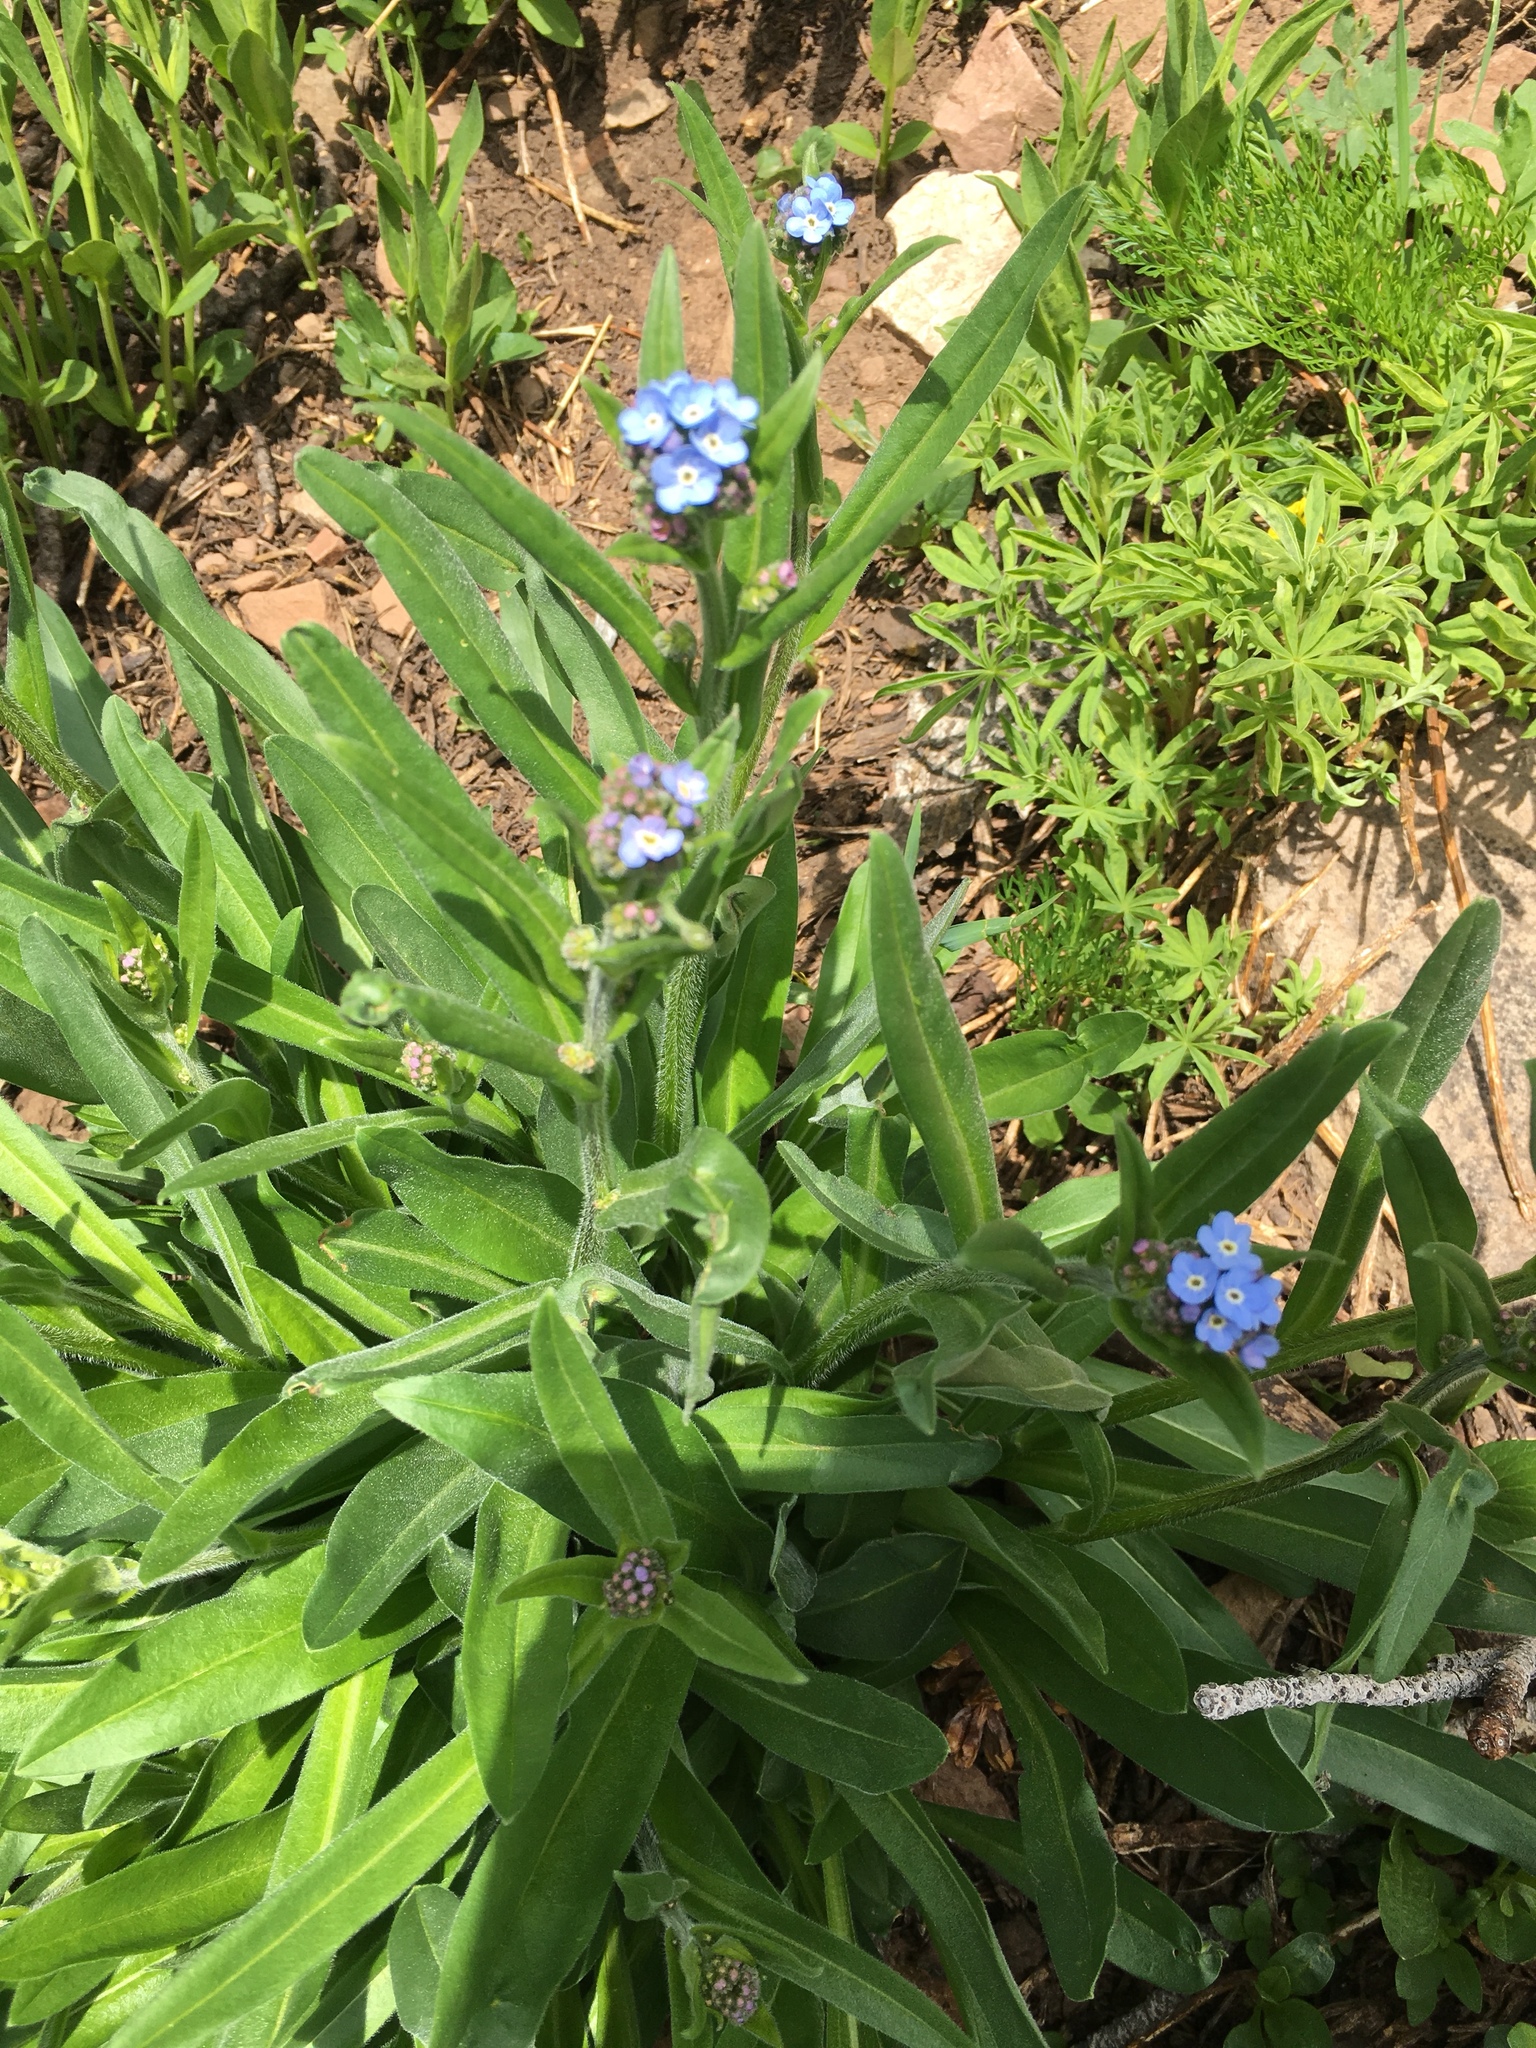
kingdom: Plantae
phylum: Tracheophyta
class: Magnoliopsida
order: Boraginales
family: Boraginaceae
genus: Hackelia
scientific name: Hackelia floribunda
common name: Large-flowered stickseed
